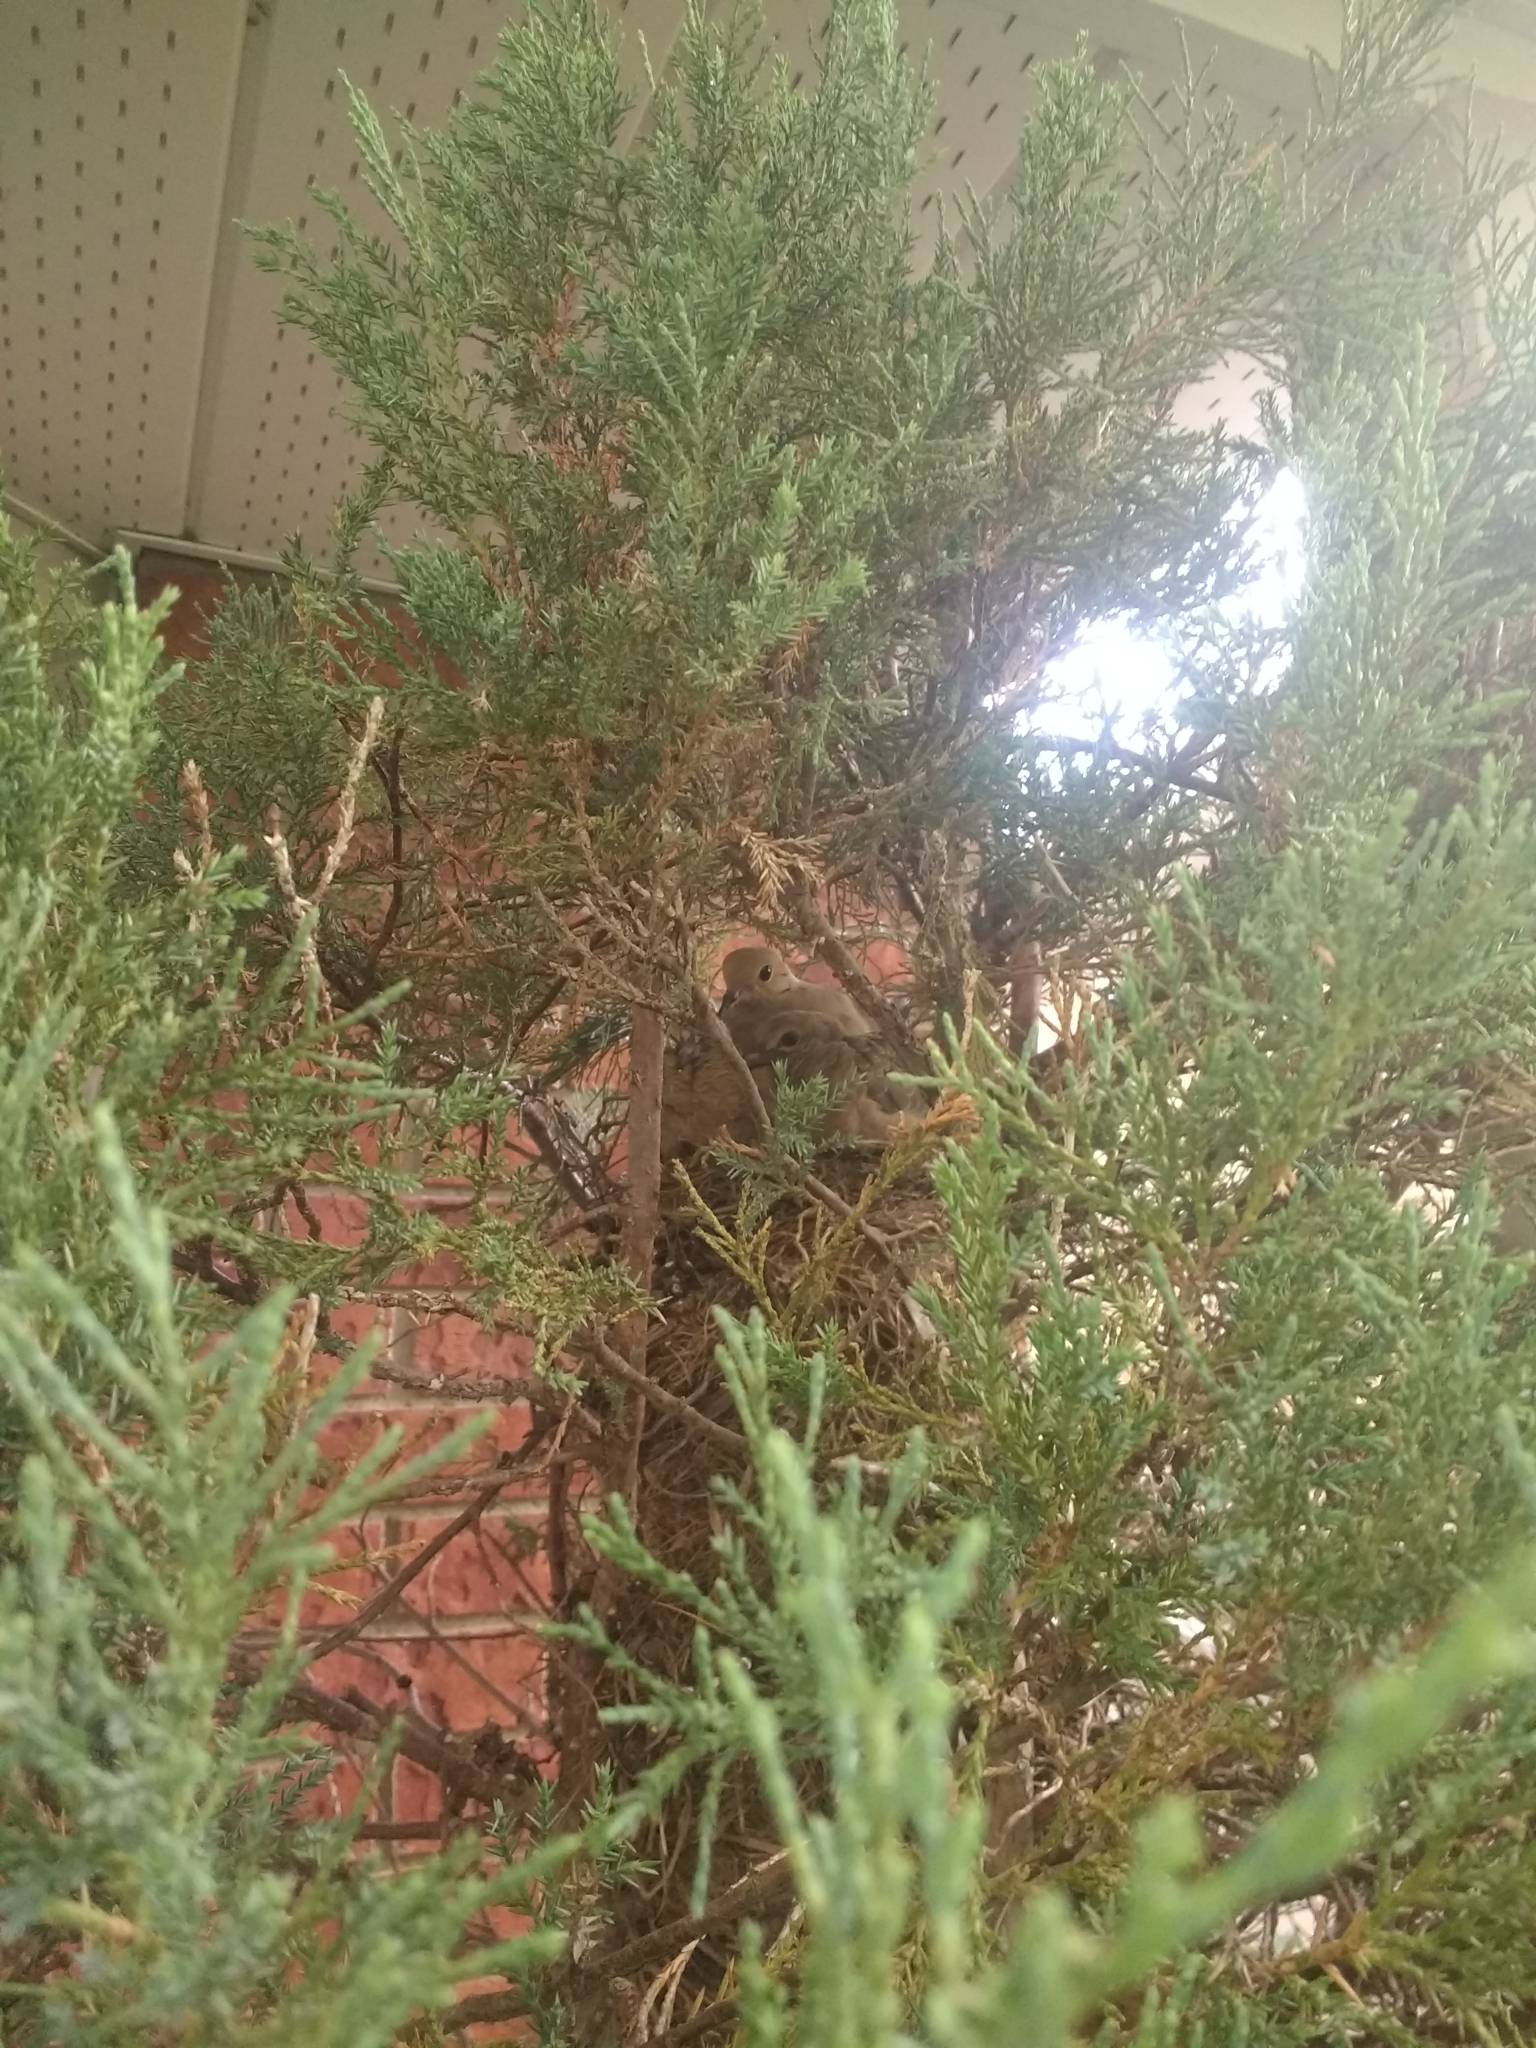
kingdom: Animalia
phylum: Chordata
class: Aves
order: Columbiformes
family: Columbidae
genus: Zenaida
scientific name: Zenaida macroura
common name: Mourning dove
